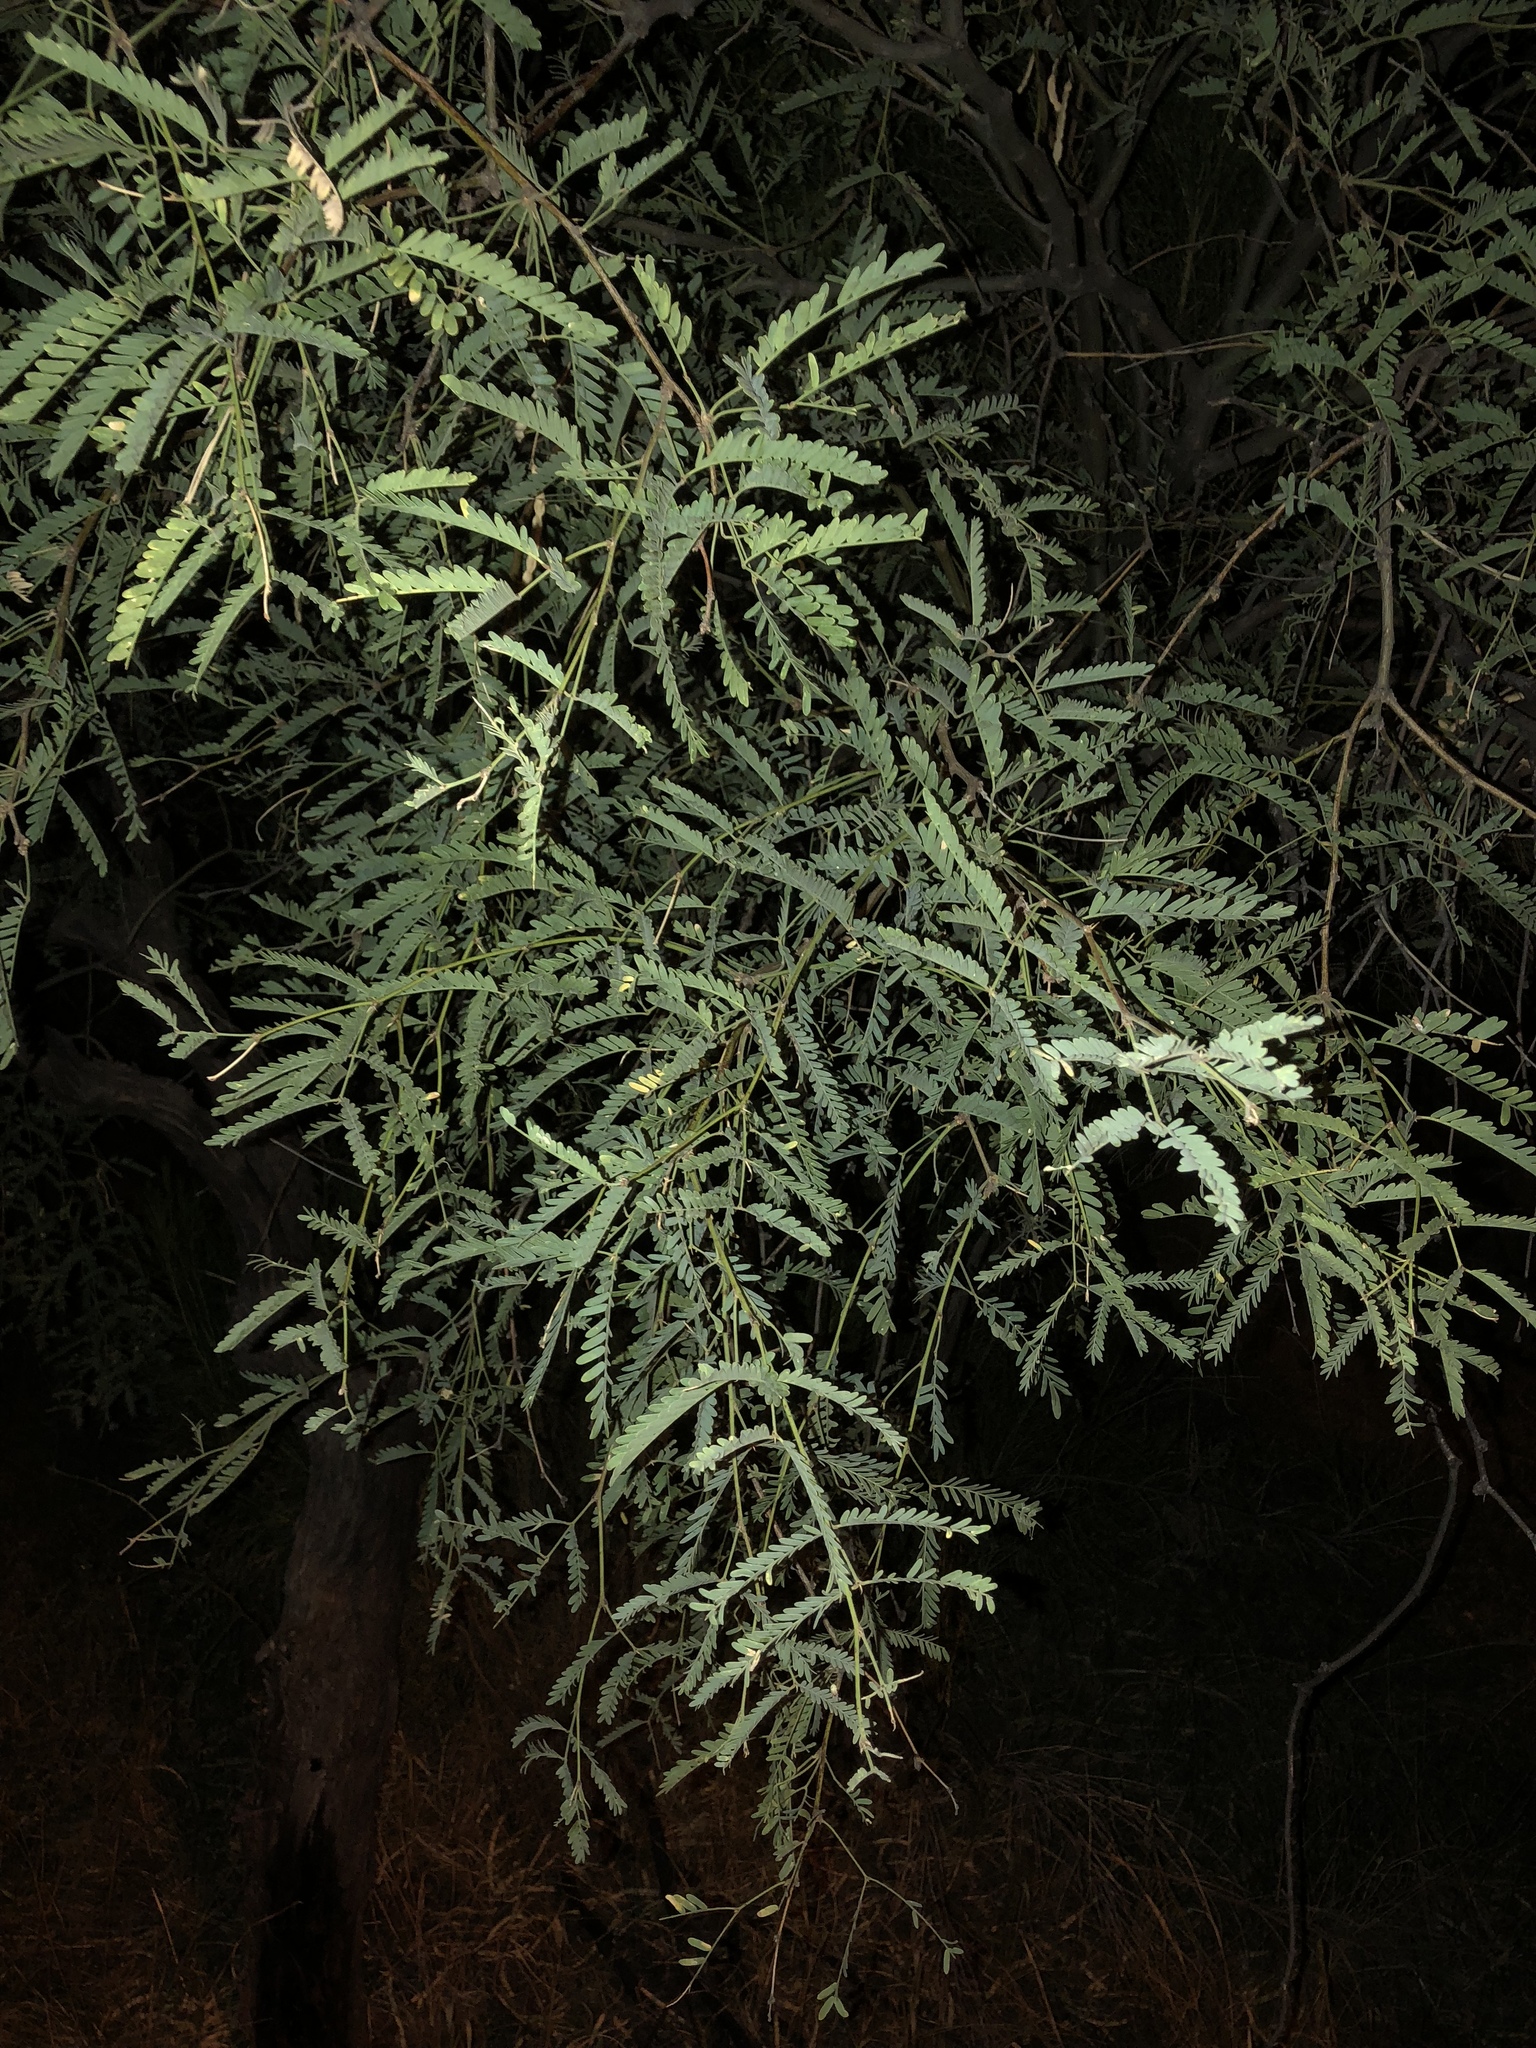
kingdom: Plantae
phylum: Tracheophyta
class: Magnoliopsida
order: Fabales
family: Fabaceae
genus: Prosopis
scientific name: Prosopis velutina
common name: Velvet mesquite
